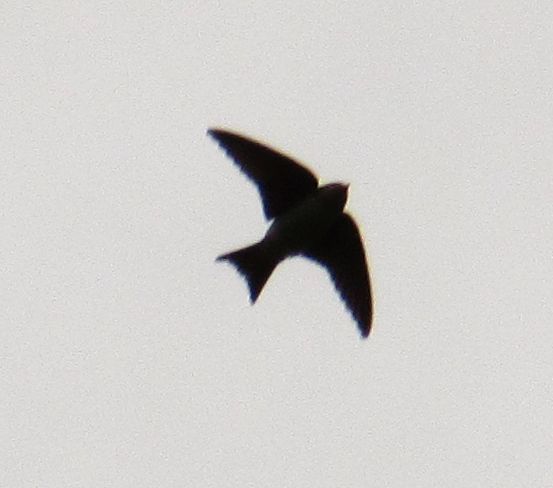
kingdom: Animalia
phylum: Chordata
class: Aves
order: Passeriformes
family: Hirundinidae
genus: Delichon
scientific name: Delichon urbicum
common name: Common house martin
